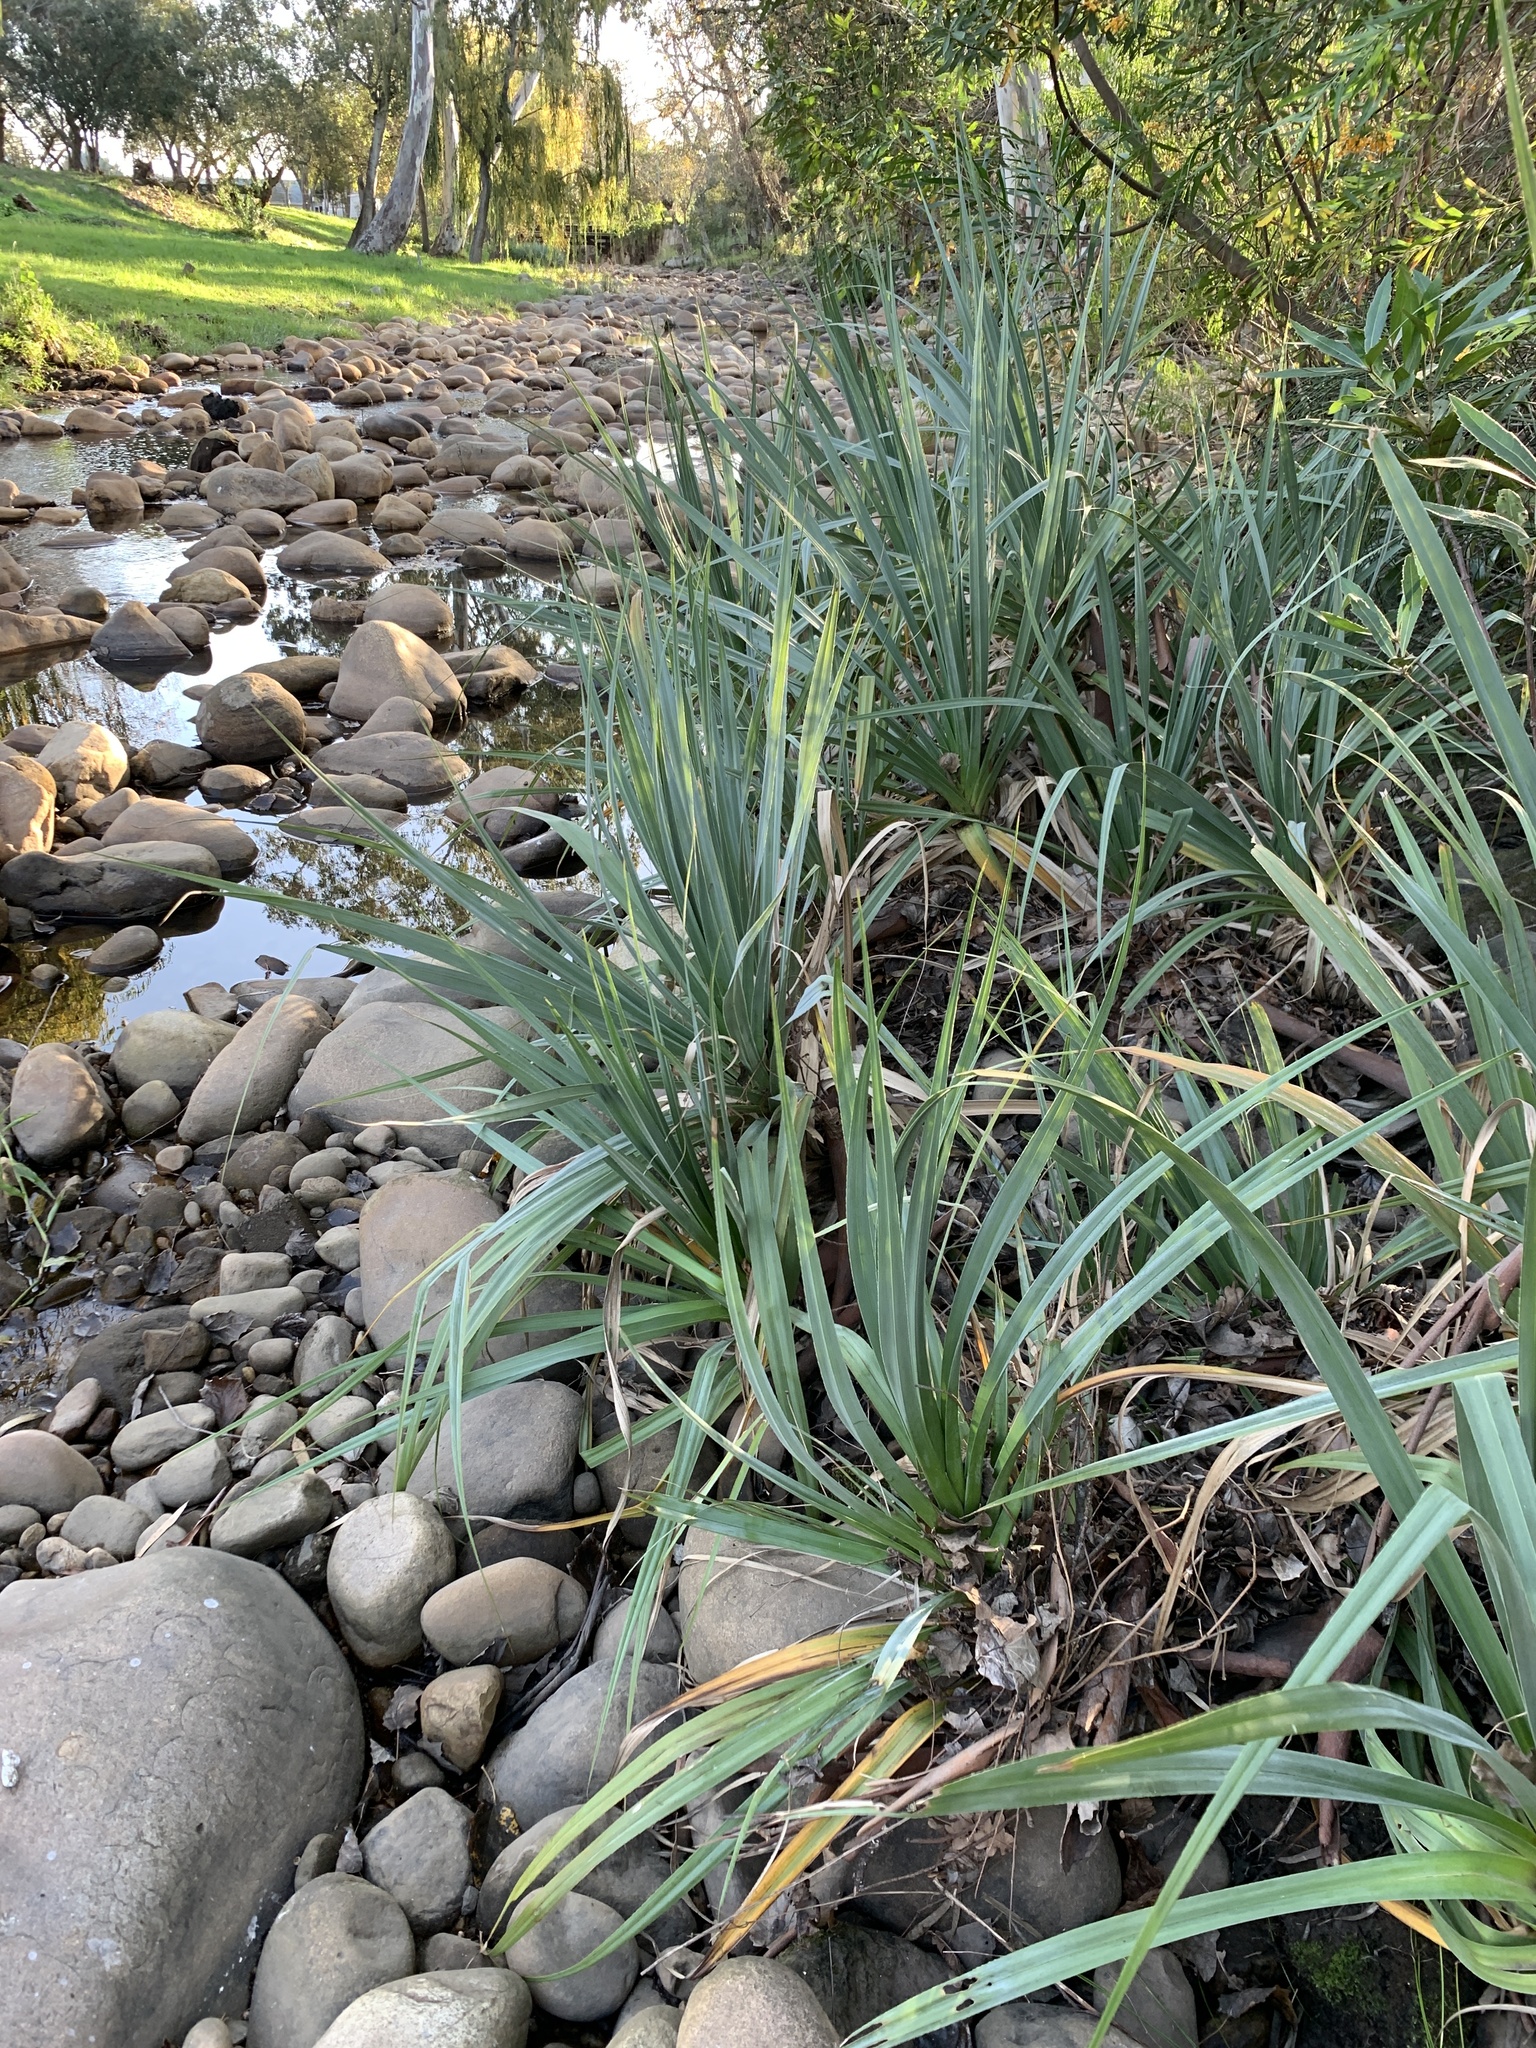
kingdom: Plantae
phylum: Tracheophyta
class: Liliopsida
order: Poales
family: Thurniaceae
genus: Prionium
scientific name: Prionium serratum
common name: Palmiet
